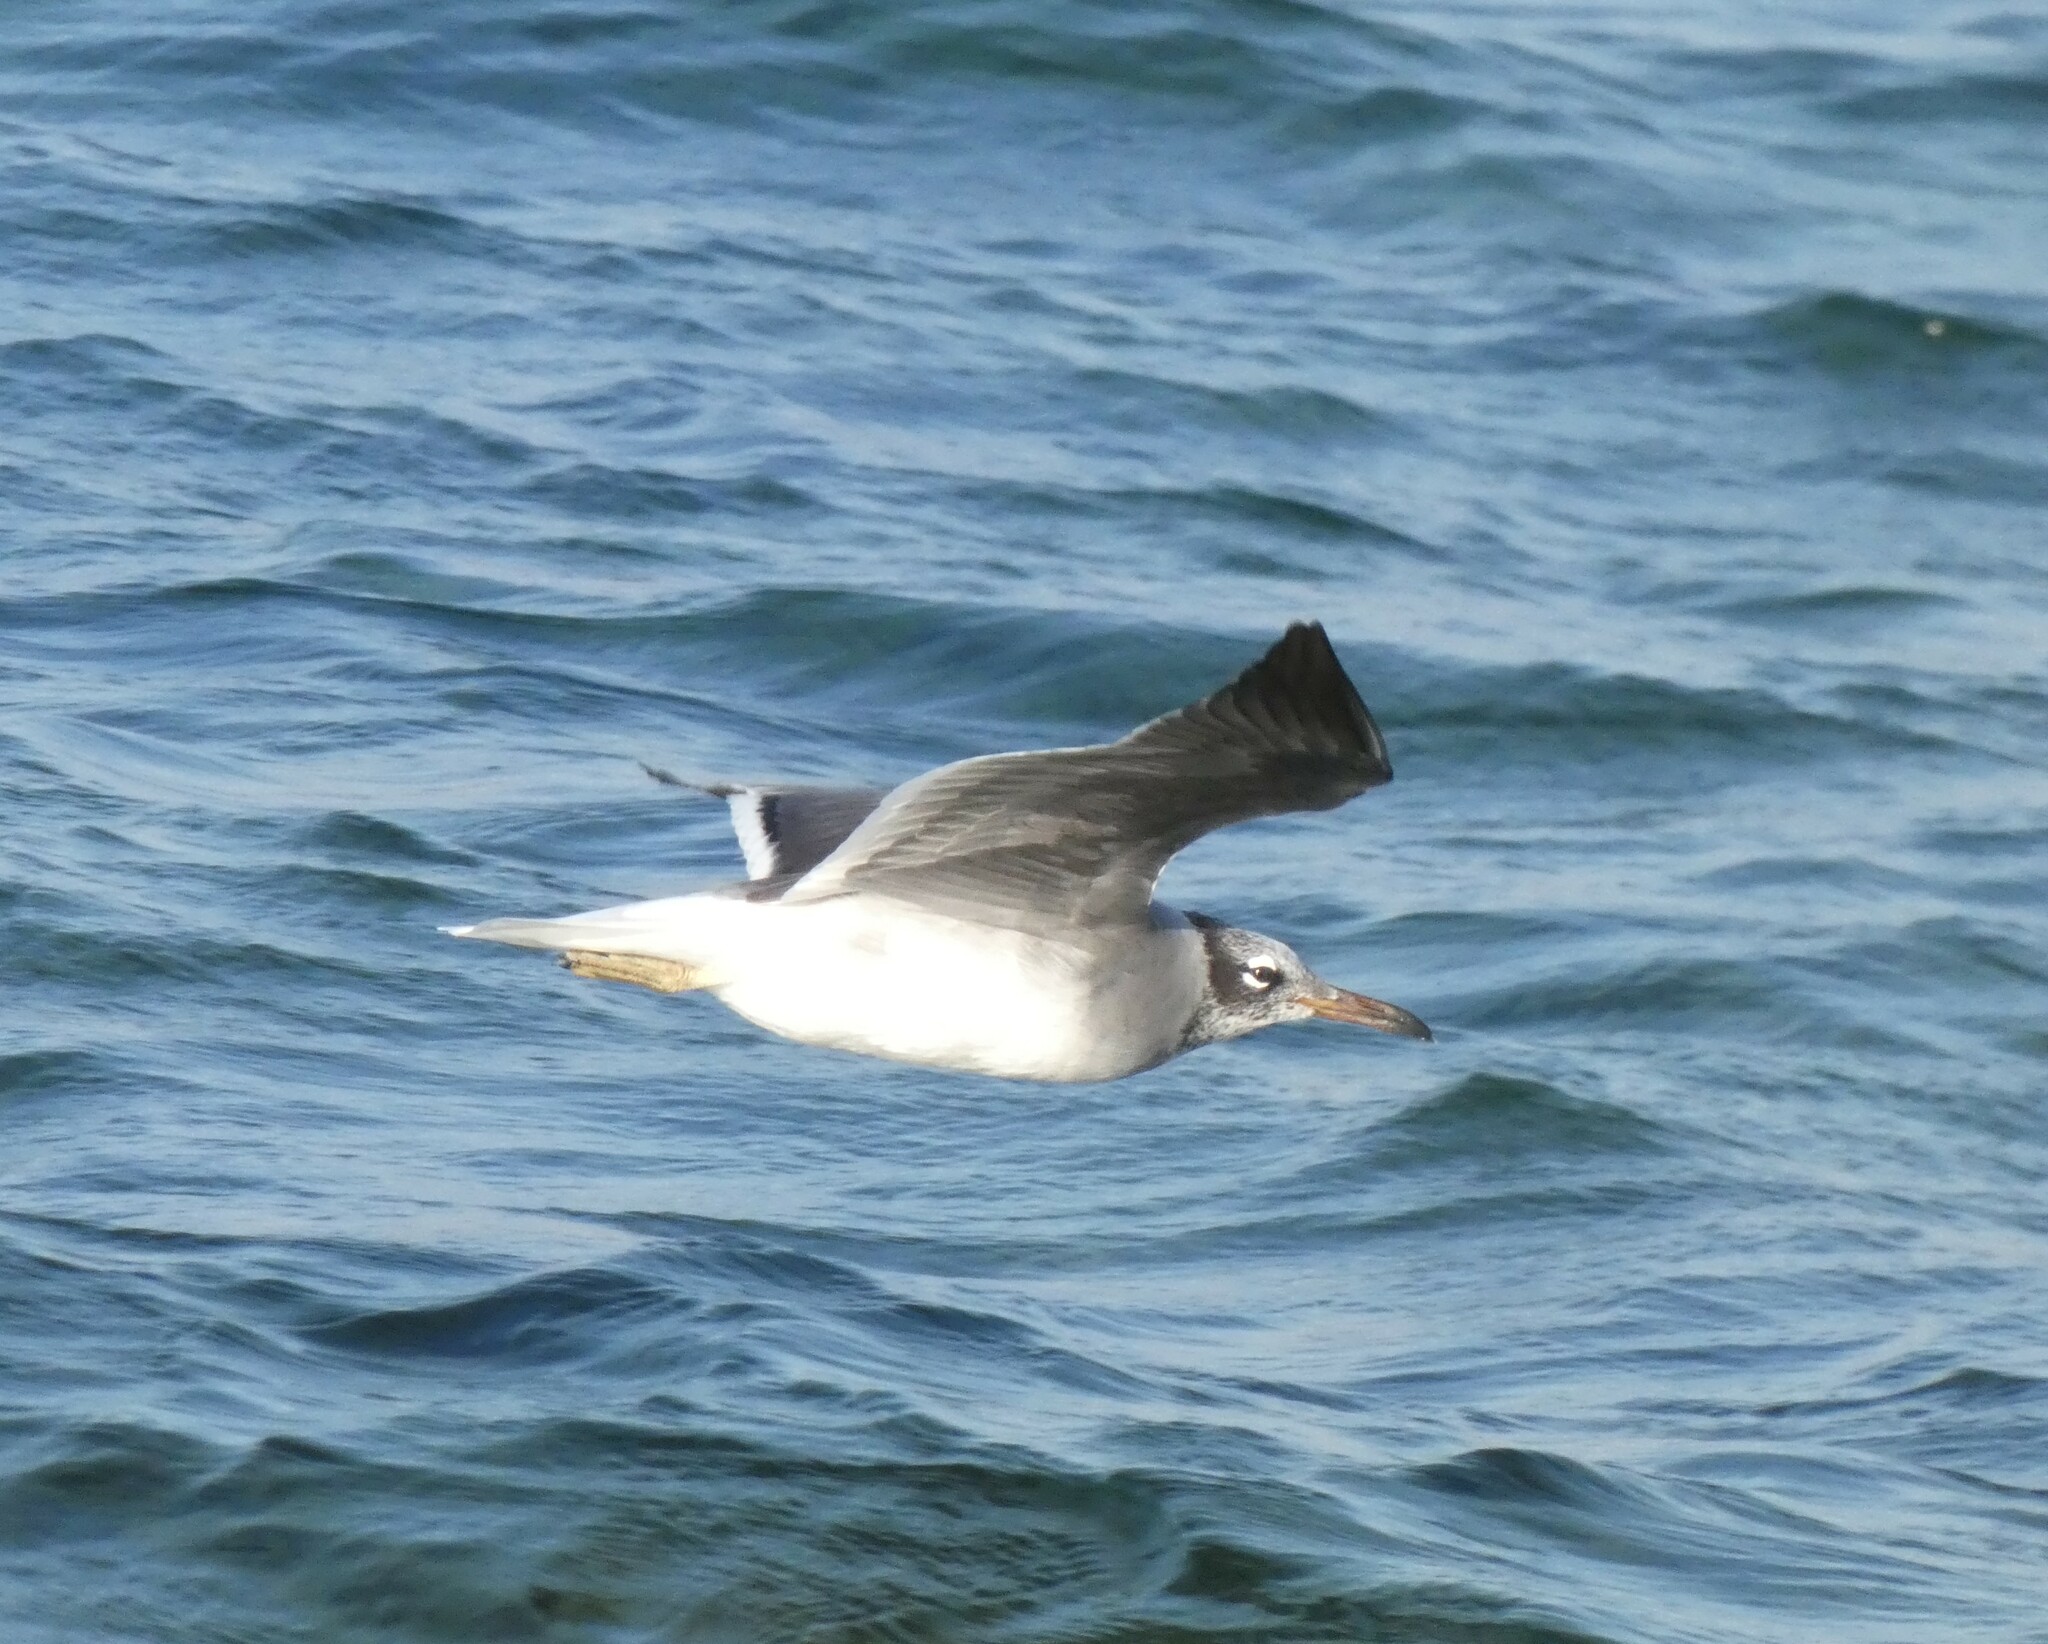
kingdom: Animalia
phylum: Chordata
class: Aves
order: Charadriiformes
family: Laridae
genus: Ichthyaetus
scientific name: Ichthyaetus leucophthalmus
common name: White-eyed gull
